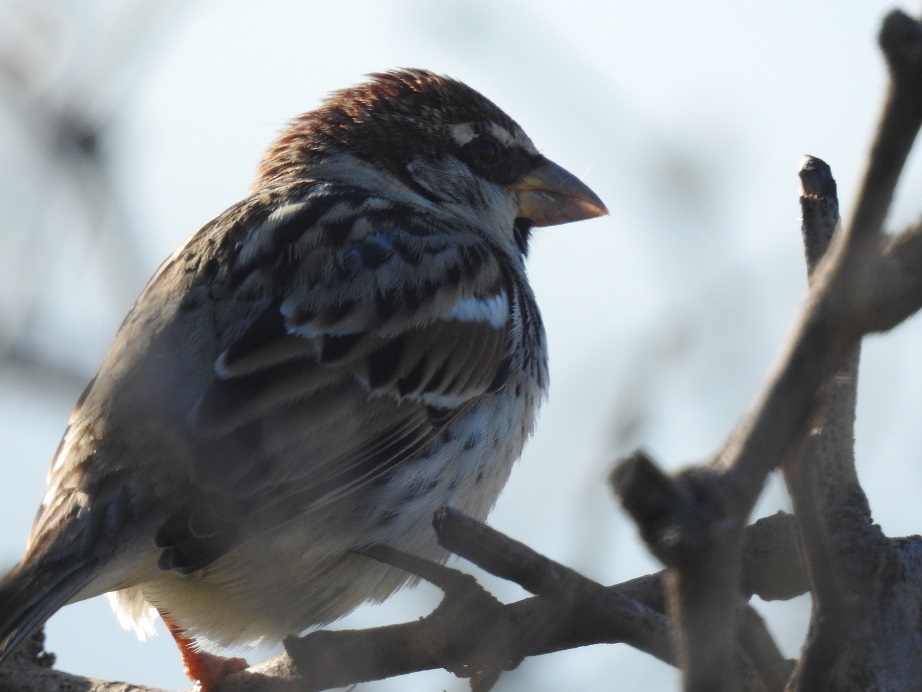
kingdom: Animalia
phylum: Chordata
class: Aves
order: Passeriformes
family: Passeridae
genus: Passer
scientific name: Passer hispaniolensis
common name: Spanish sparrow
